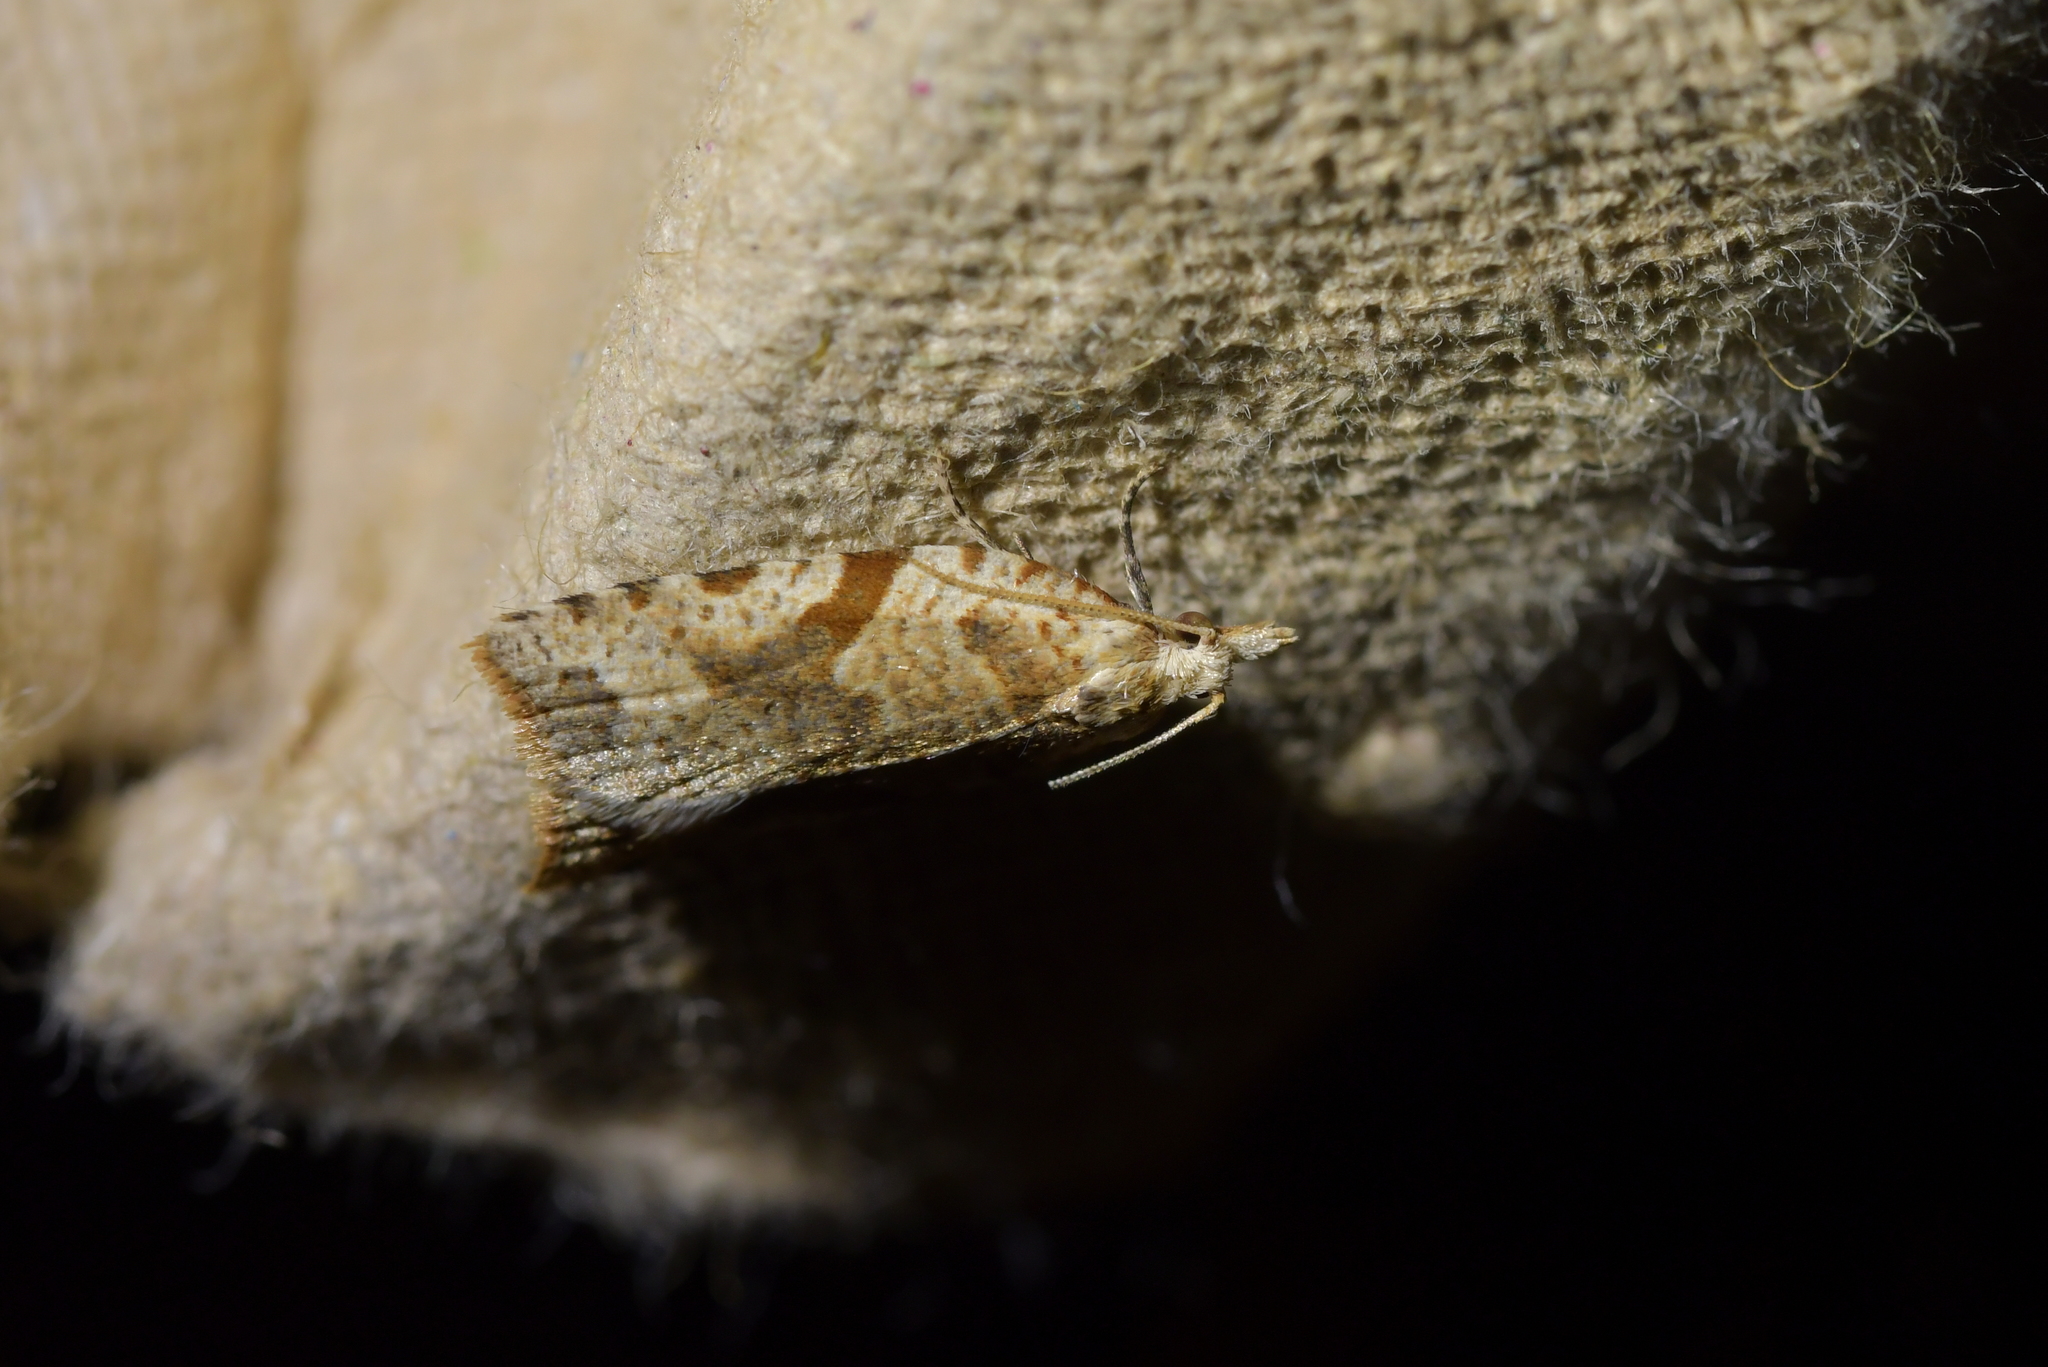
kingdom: Animalia
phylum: Arthropoda
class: Insecta
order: Lepidoptera
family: Tortricidae
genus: Leucotenes
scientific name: Leucotenes coprosmae
